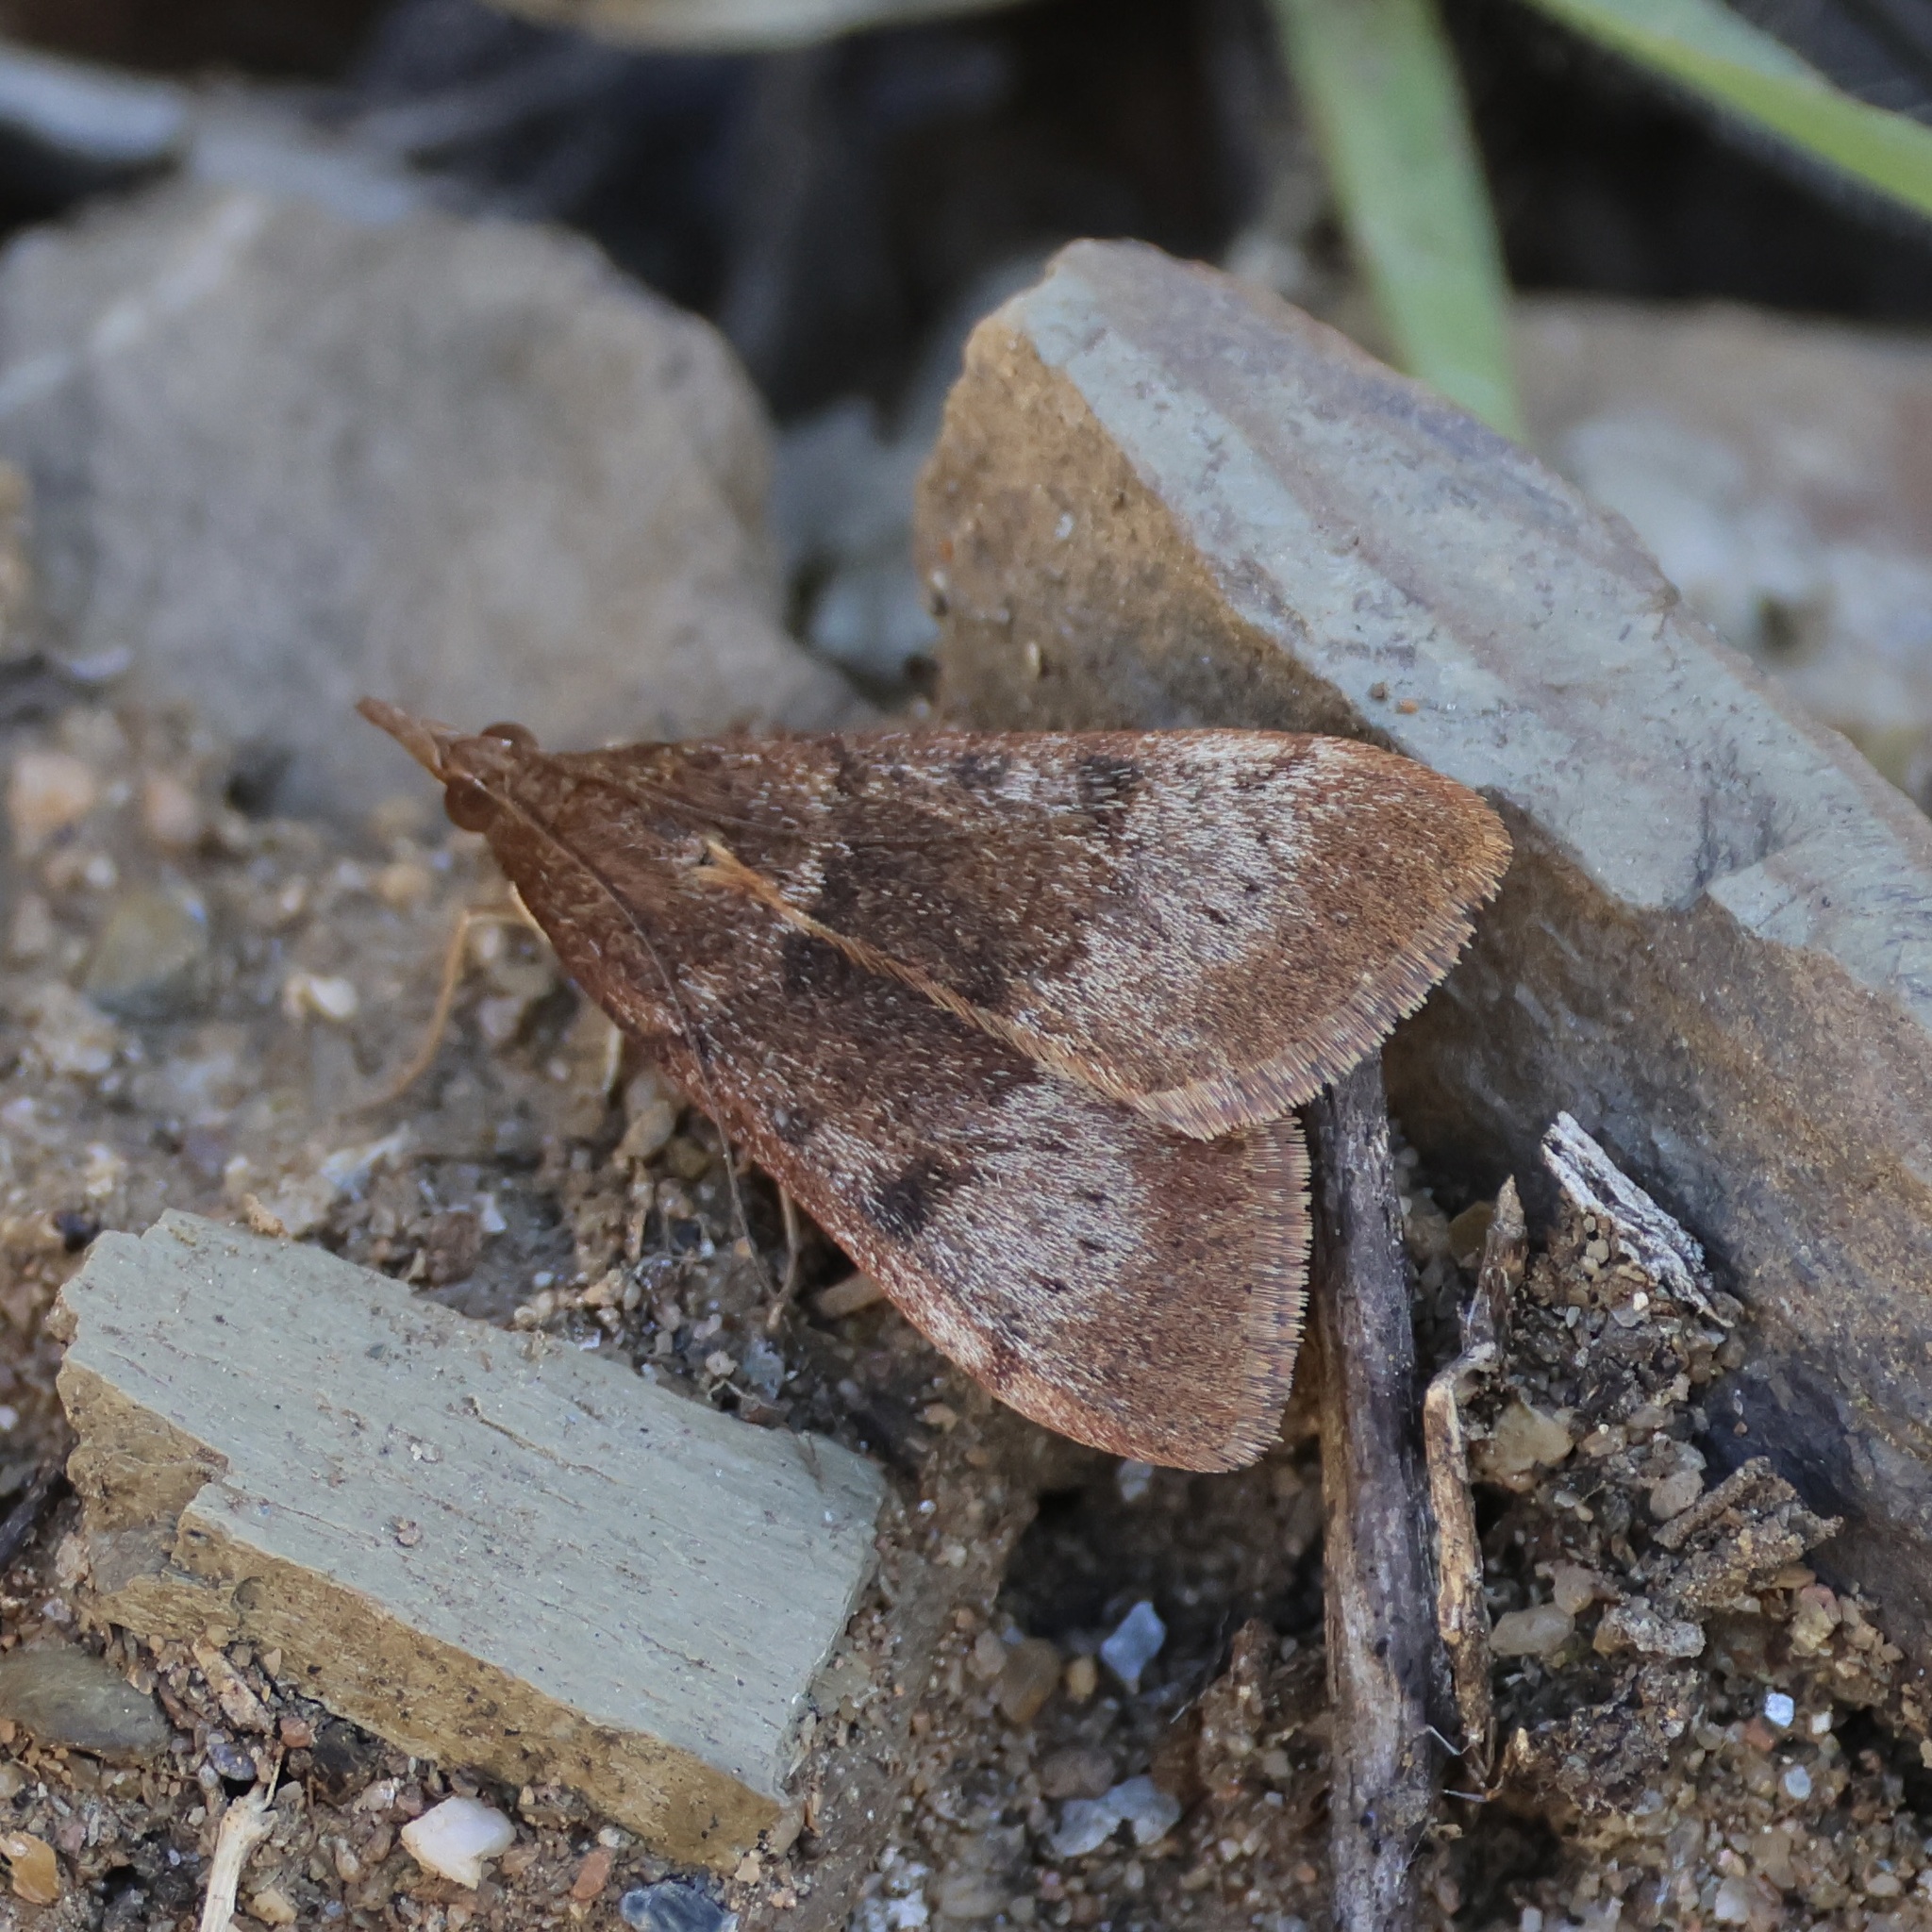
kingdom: Animalia
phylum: Arthropoda
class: Insecta
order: Lepidoptera
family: Crambidae
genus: Uresiphita
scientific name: Uresiphita gilvata
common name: Yellow-underwing pearl
